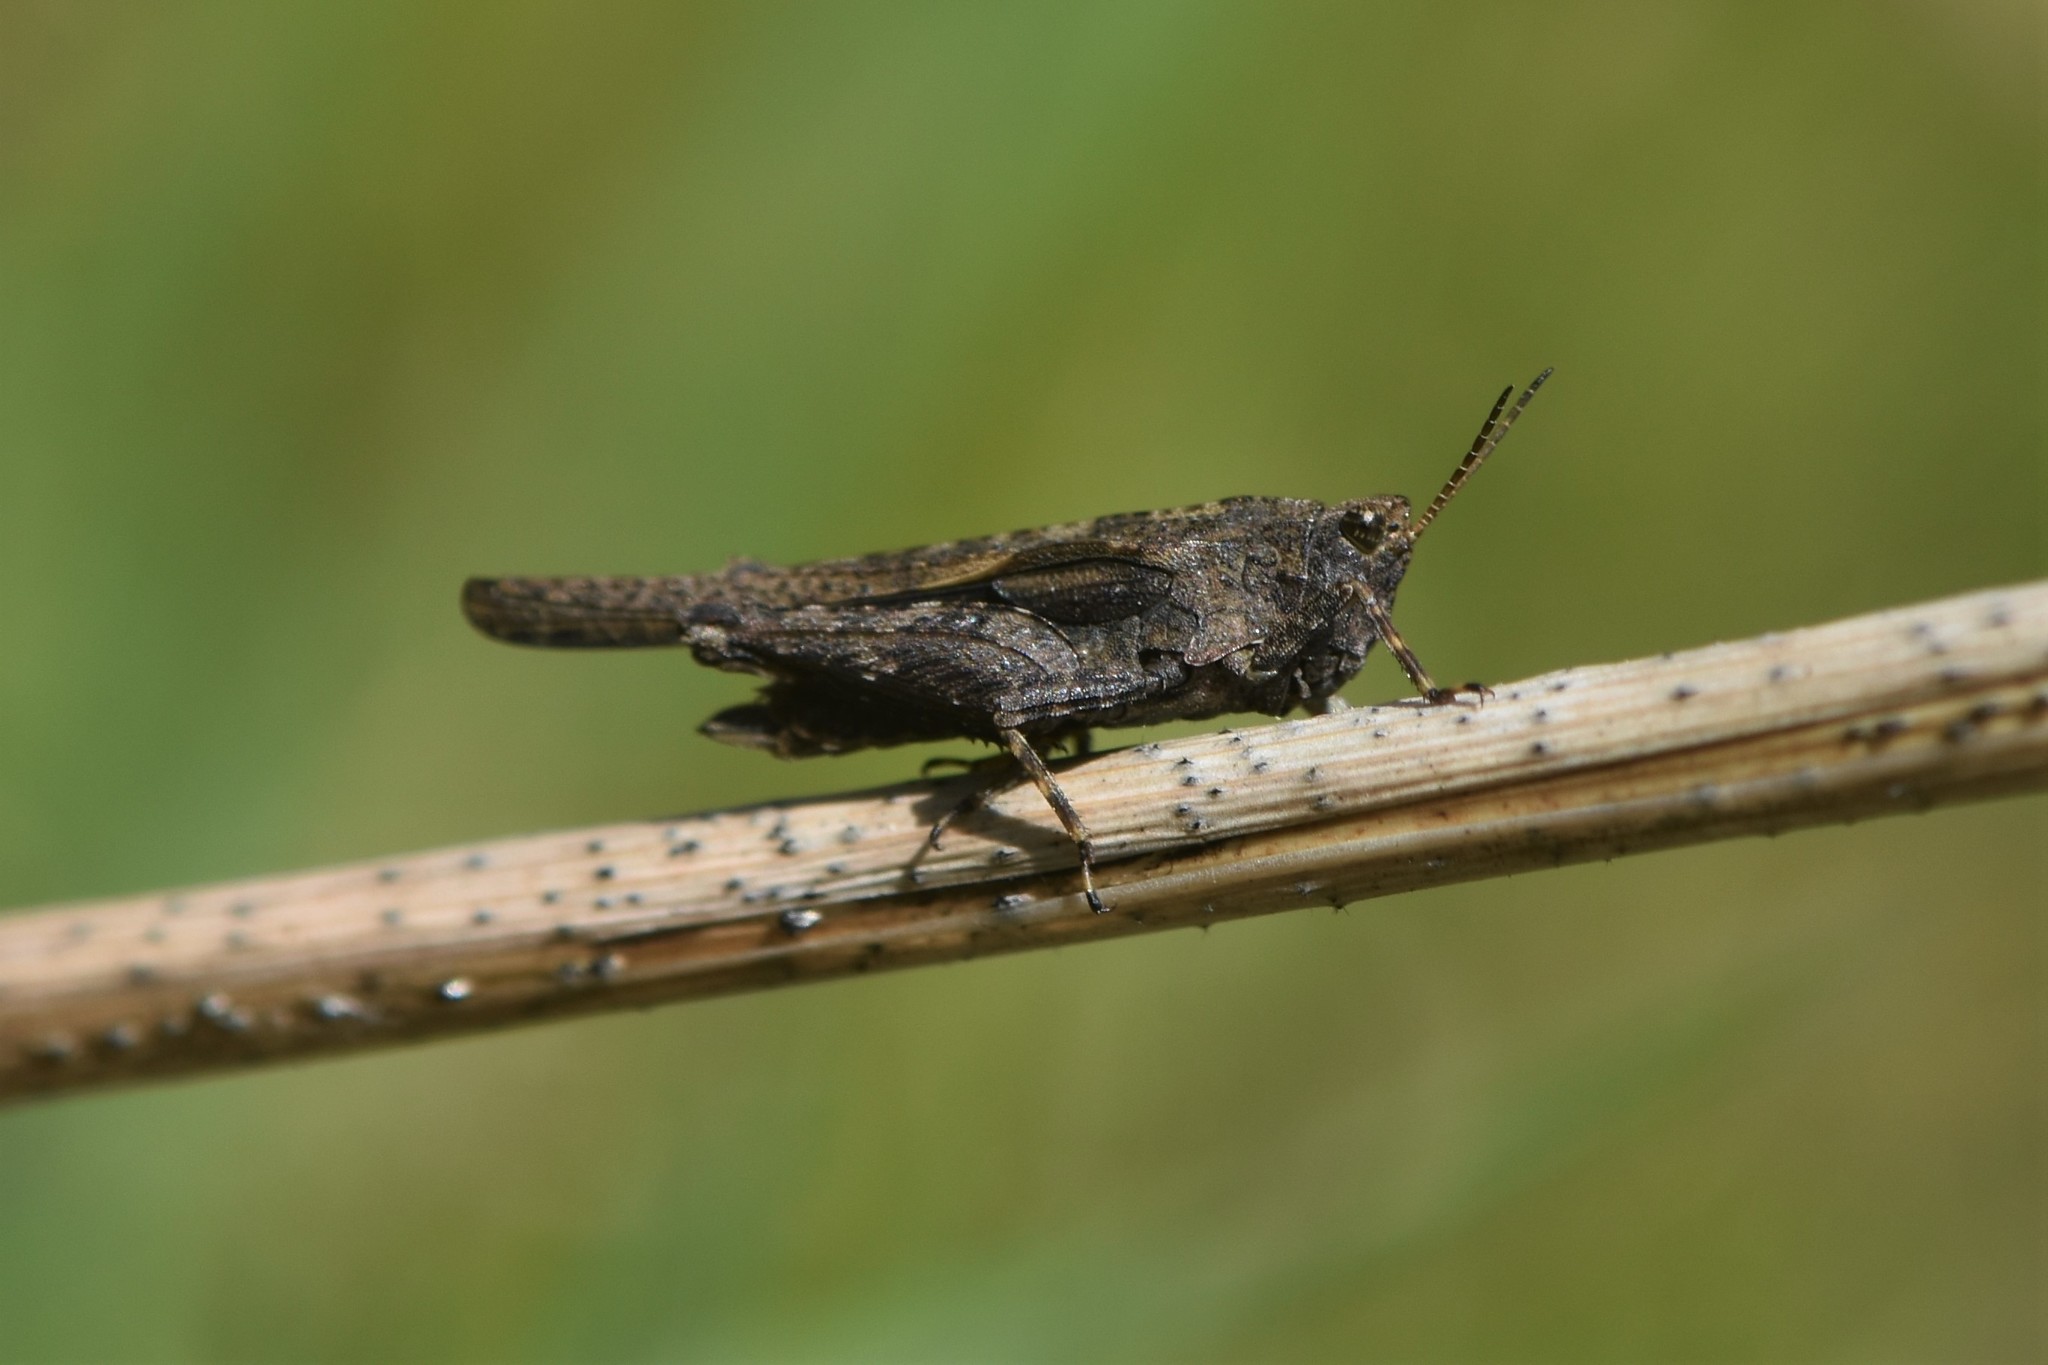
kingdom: Animalia
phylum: Arthropoda
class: Insecta
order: Orthoptera
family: Tetrigidae
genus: Tetrix
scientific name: Tetrix subulata
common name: Slender ground-hopper
